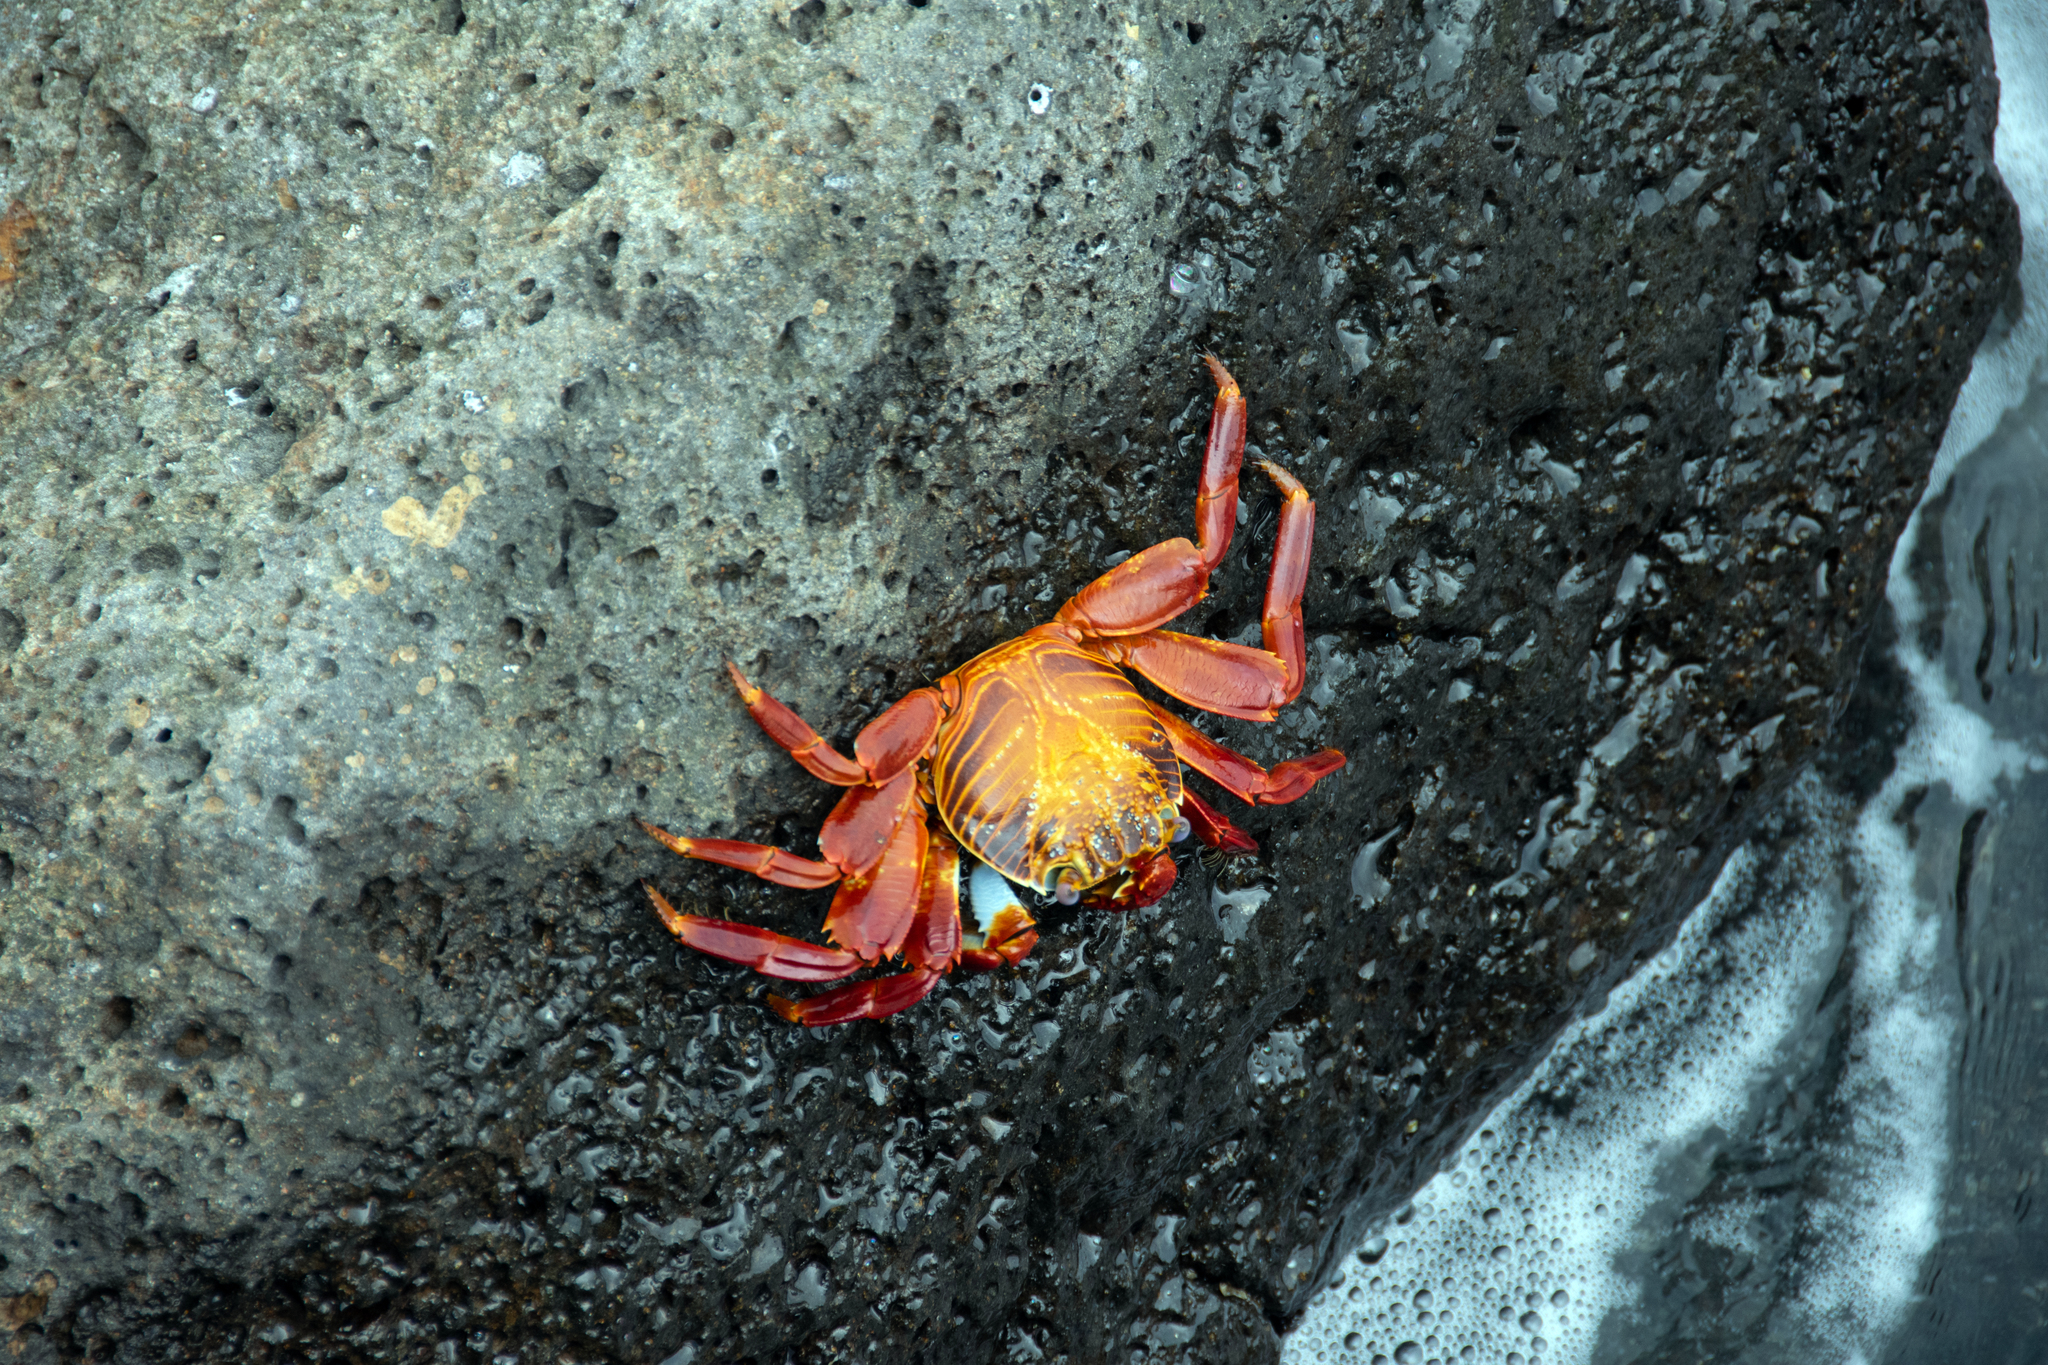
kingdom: Animalia
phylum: Arthropoda
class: Malacostraca
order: Decapoda
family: Grapsidae
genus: Grapsus
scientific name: Grapsus grapsus
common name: Sally lightfoot
